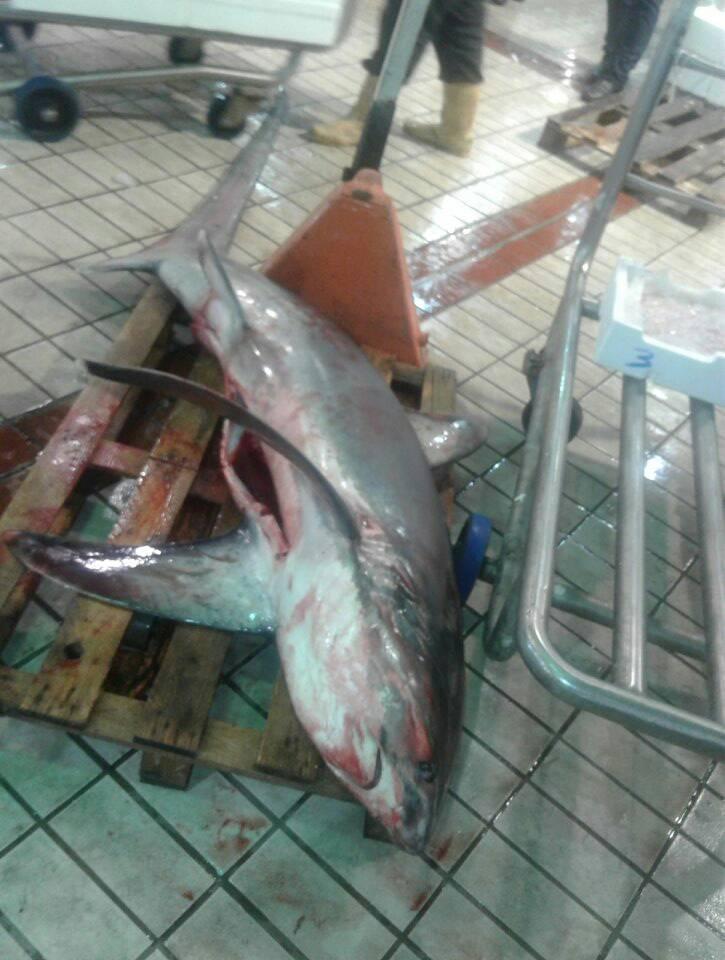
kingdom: Animalia
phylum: Chordata
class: Elasmobranchii
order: Lamniformes
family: Alopiidae
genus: Alopias
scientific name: Alopias vulpinus
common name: Thresher shark
